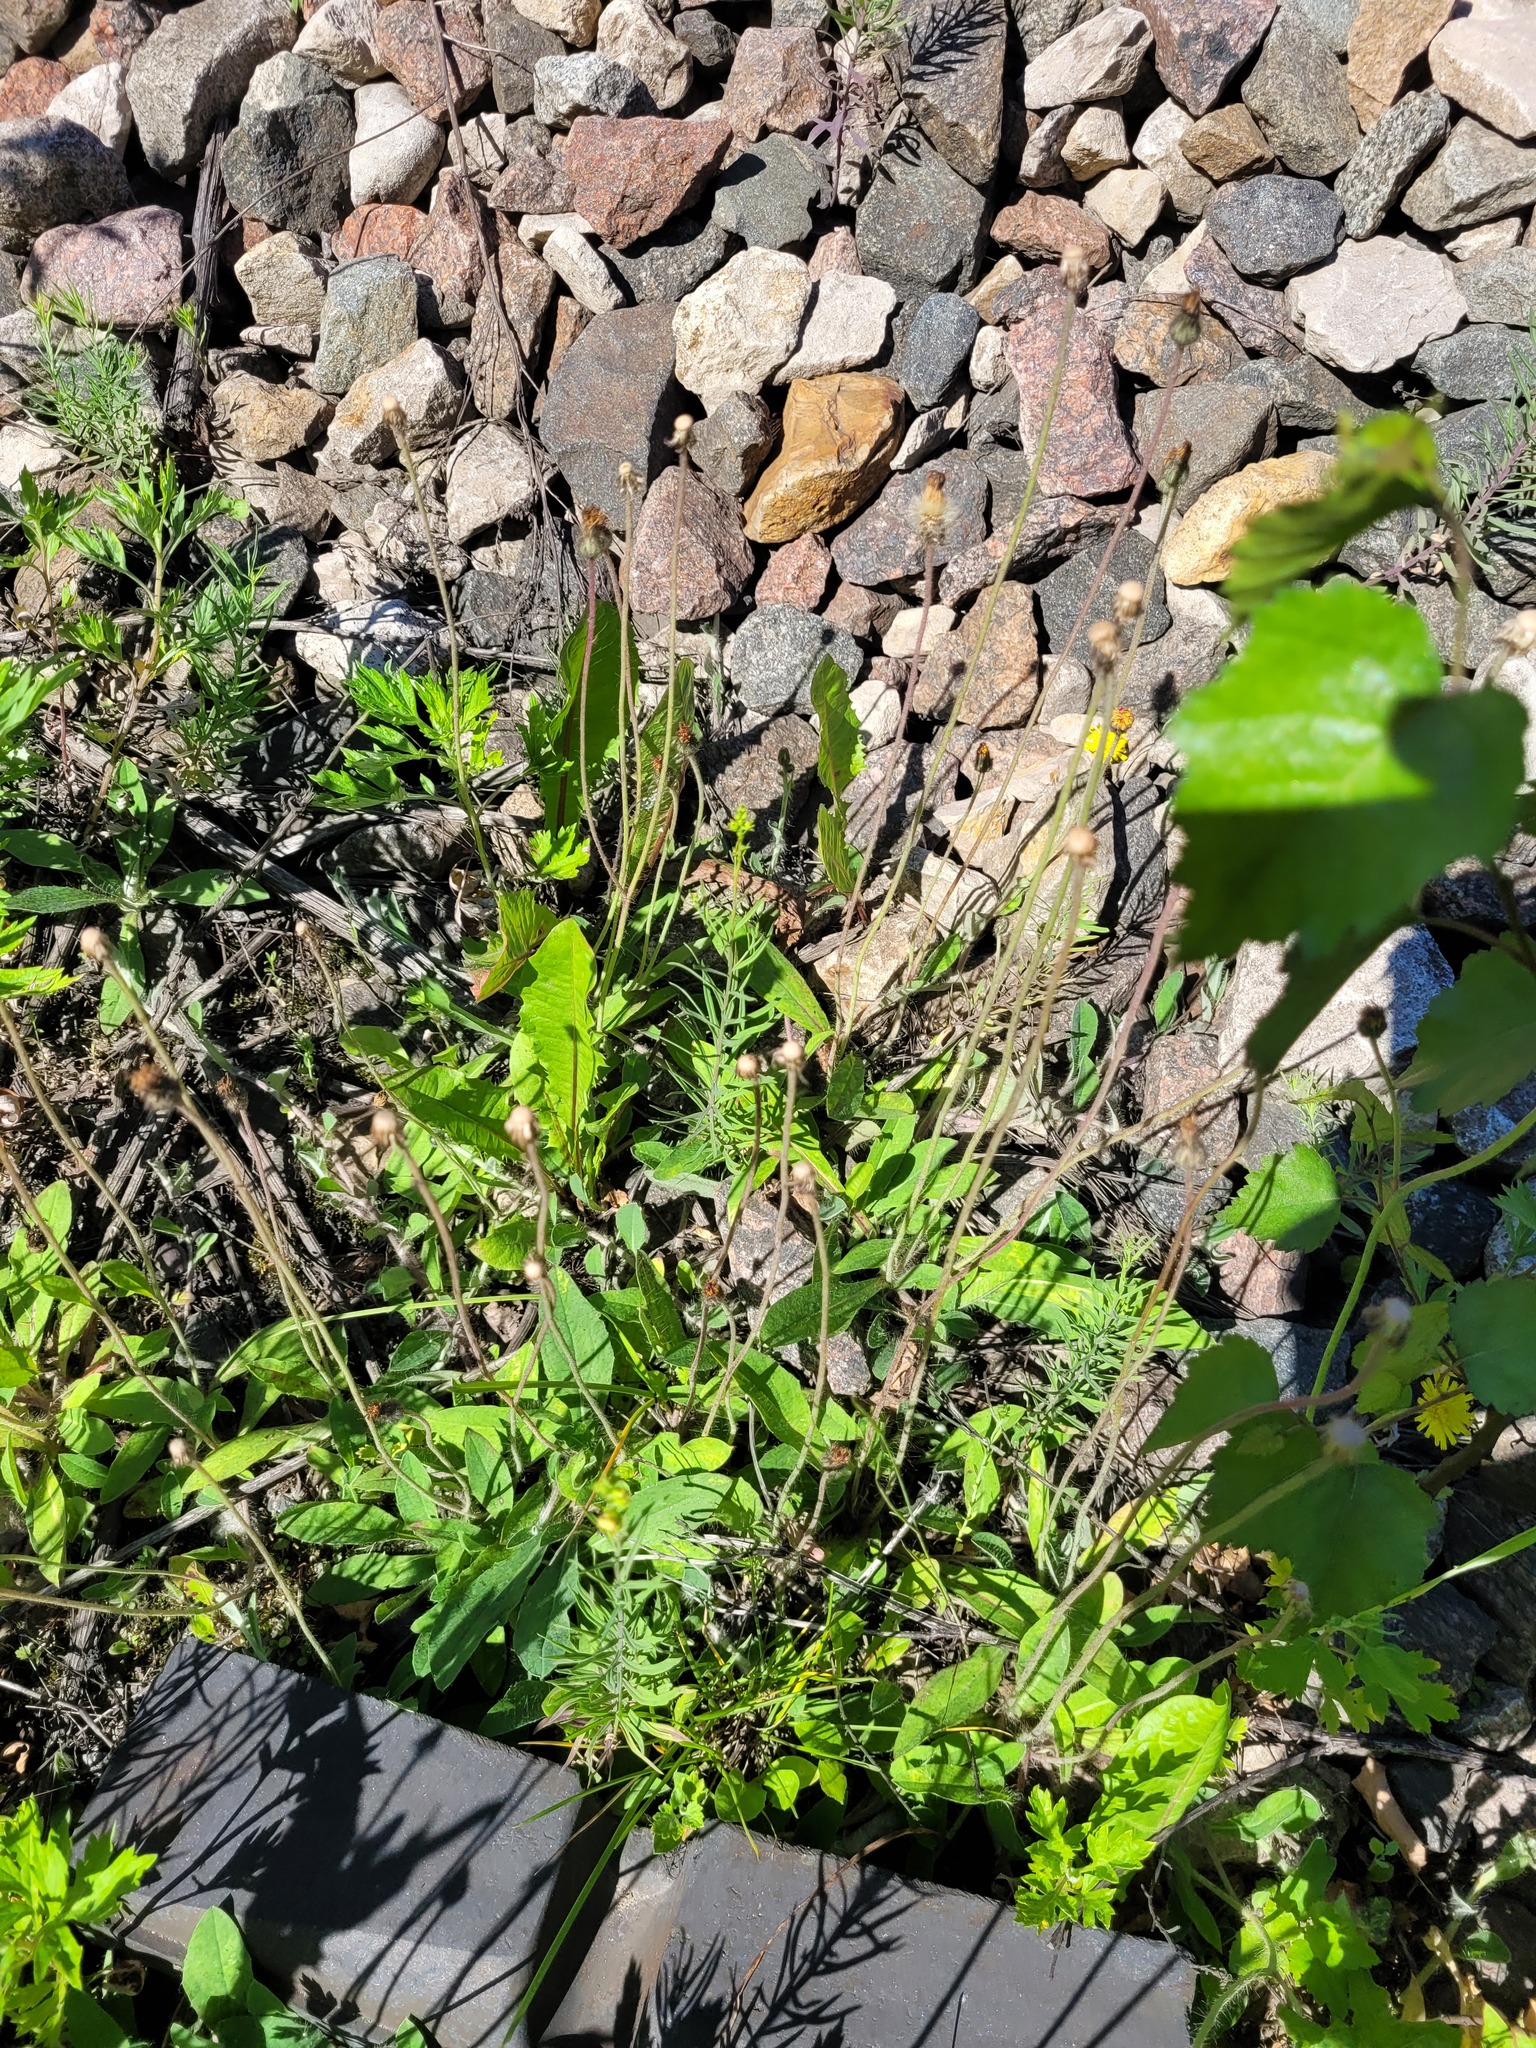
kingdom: Plantae
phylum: Tracheophyta
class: Magnoliopsida
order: Asterales
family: Asteraceae
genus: Pilosella
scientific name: Pilosella officinarum
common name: Mouse-ear hawkweed
